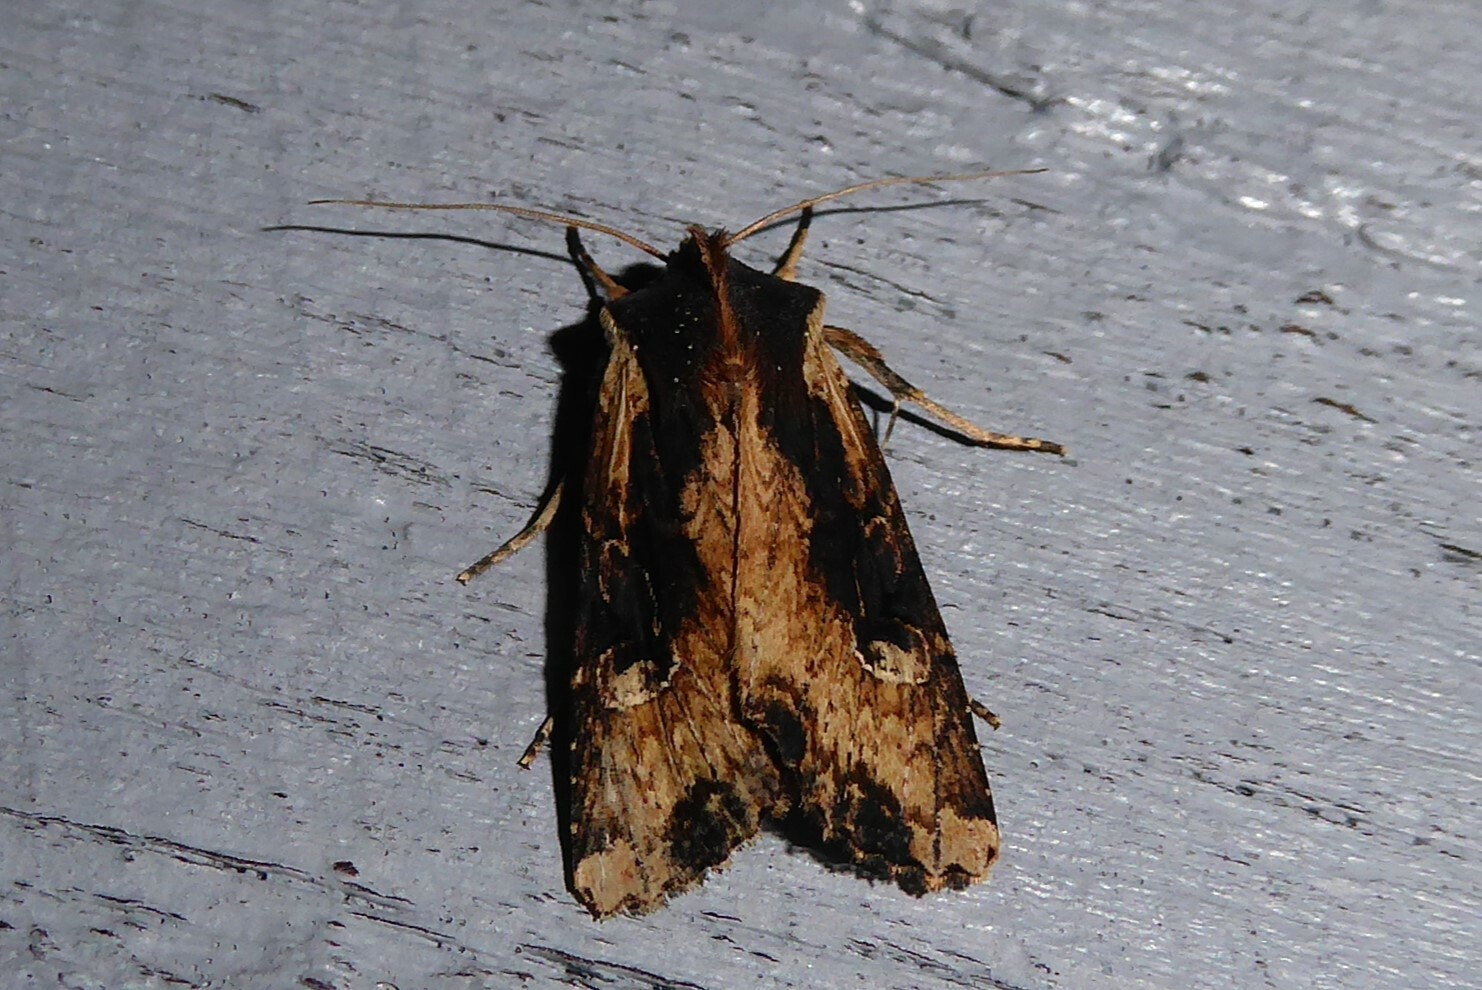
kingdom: Animalia
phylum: Arthropoda
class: Insecta
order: Lepidoptera
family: Noctuidae
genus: Ichneutica
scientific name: Ichneutica omoplaca
